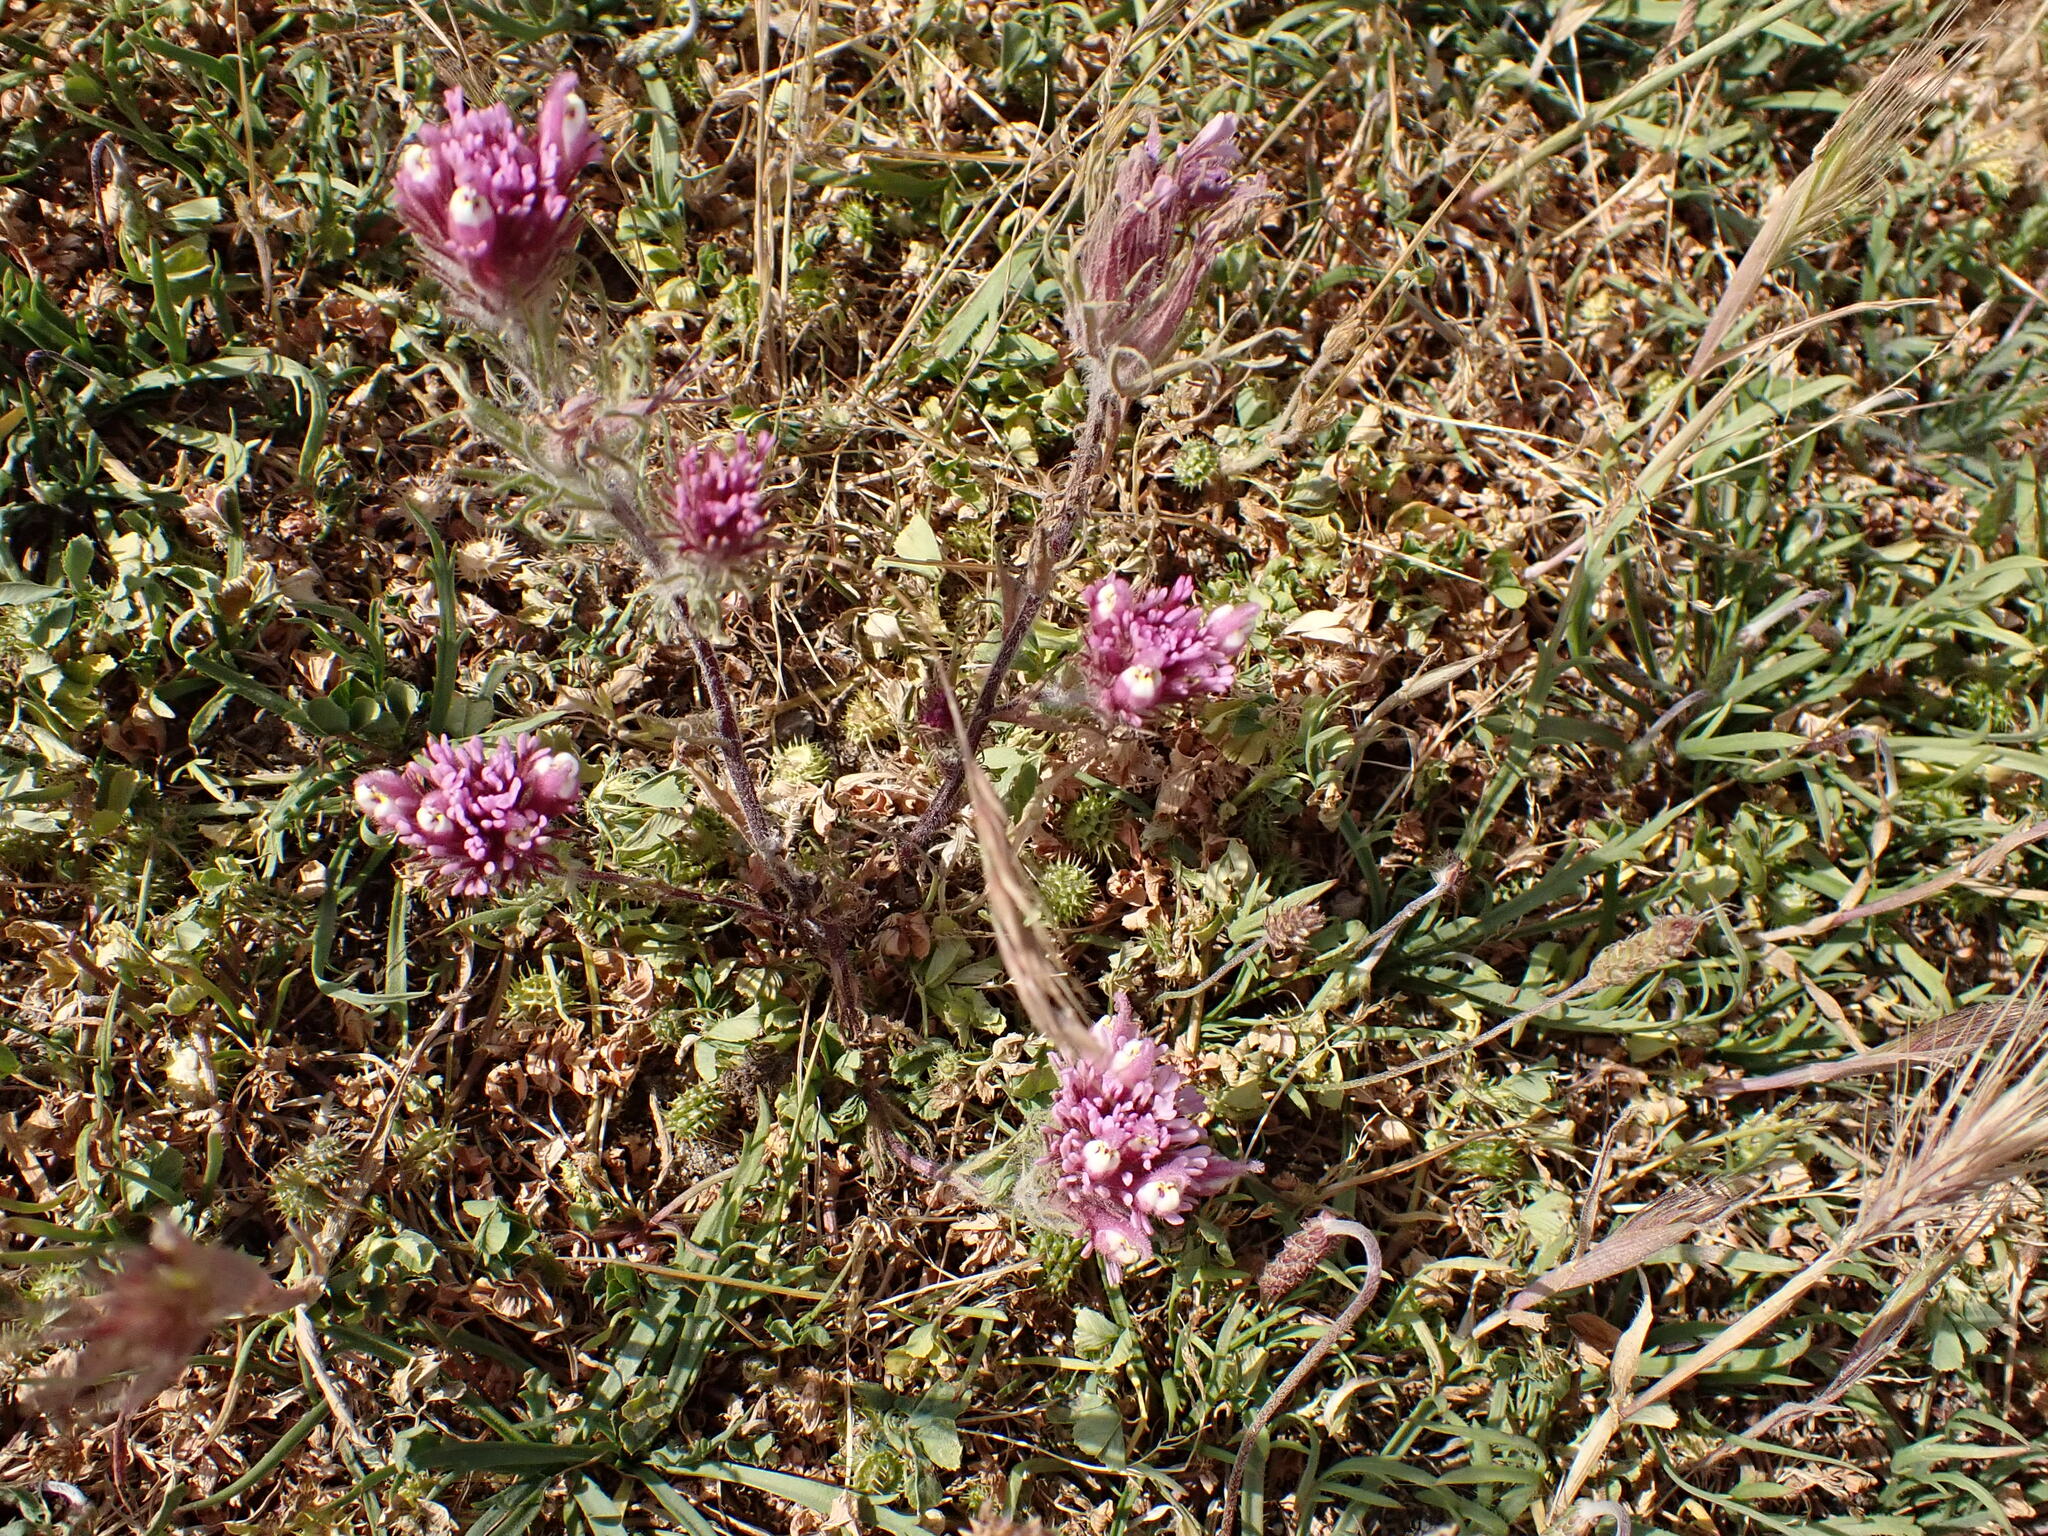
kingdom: Plantae
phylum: Tracheophyta
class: Magnoliopsida
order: Lamiales
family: Orobanchaceae
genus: Castilleja
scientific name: Castilleja exserta
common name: Purple owl-clover
